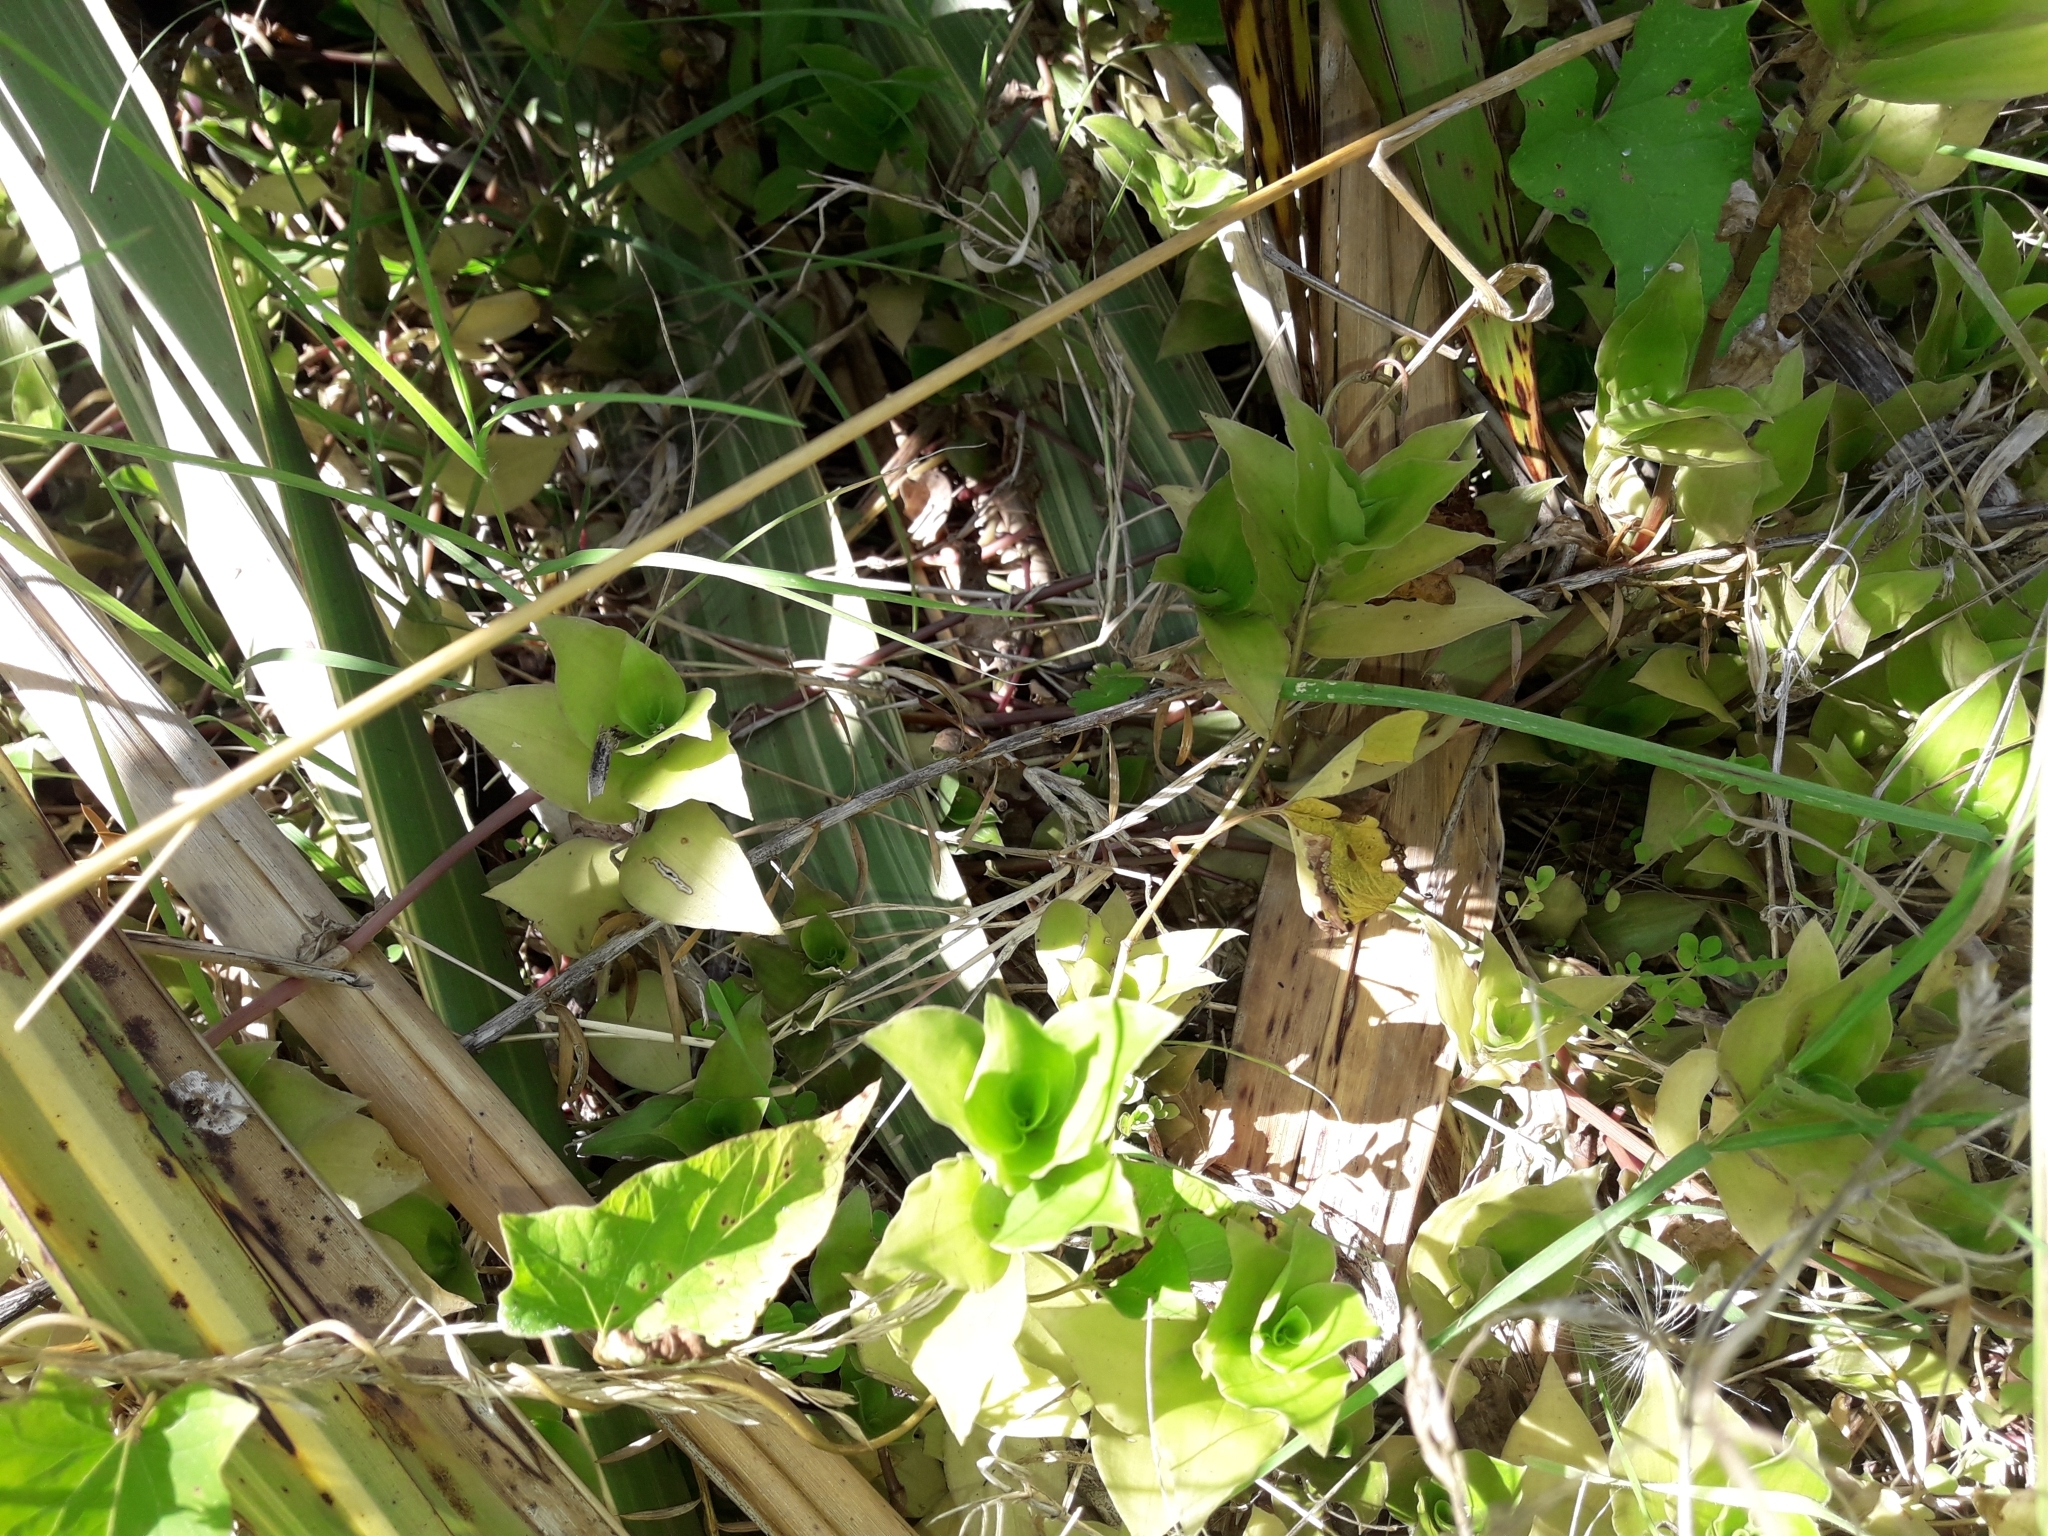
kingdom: Plantae
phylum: Tracheophyta
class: Liliopsida
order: Commelinales
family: Commelinaceae
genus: Tradescantia
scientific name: Tradescantia fluminensis
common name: Wandering-jew
